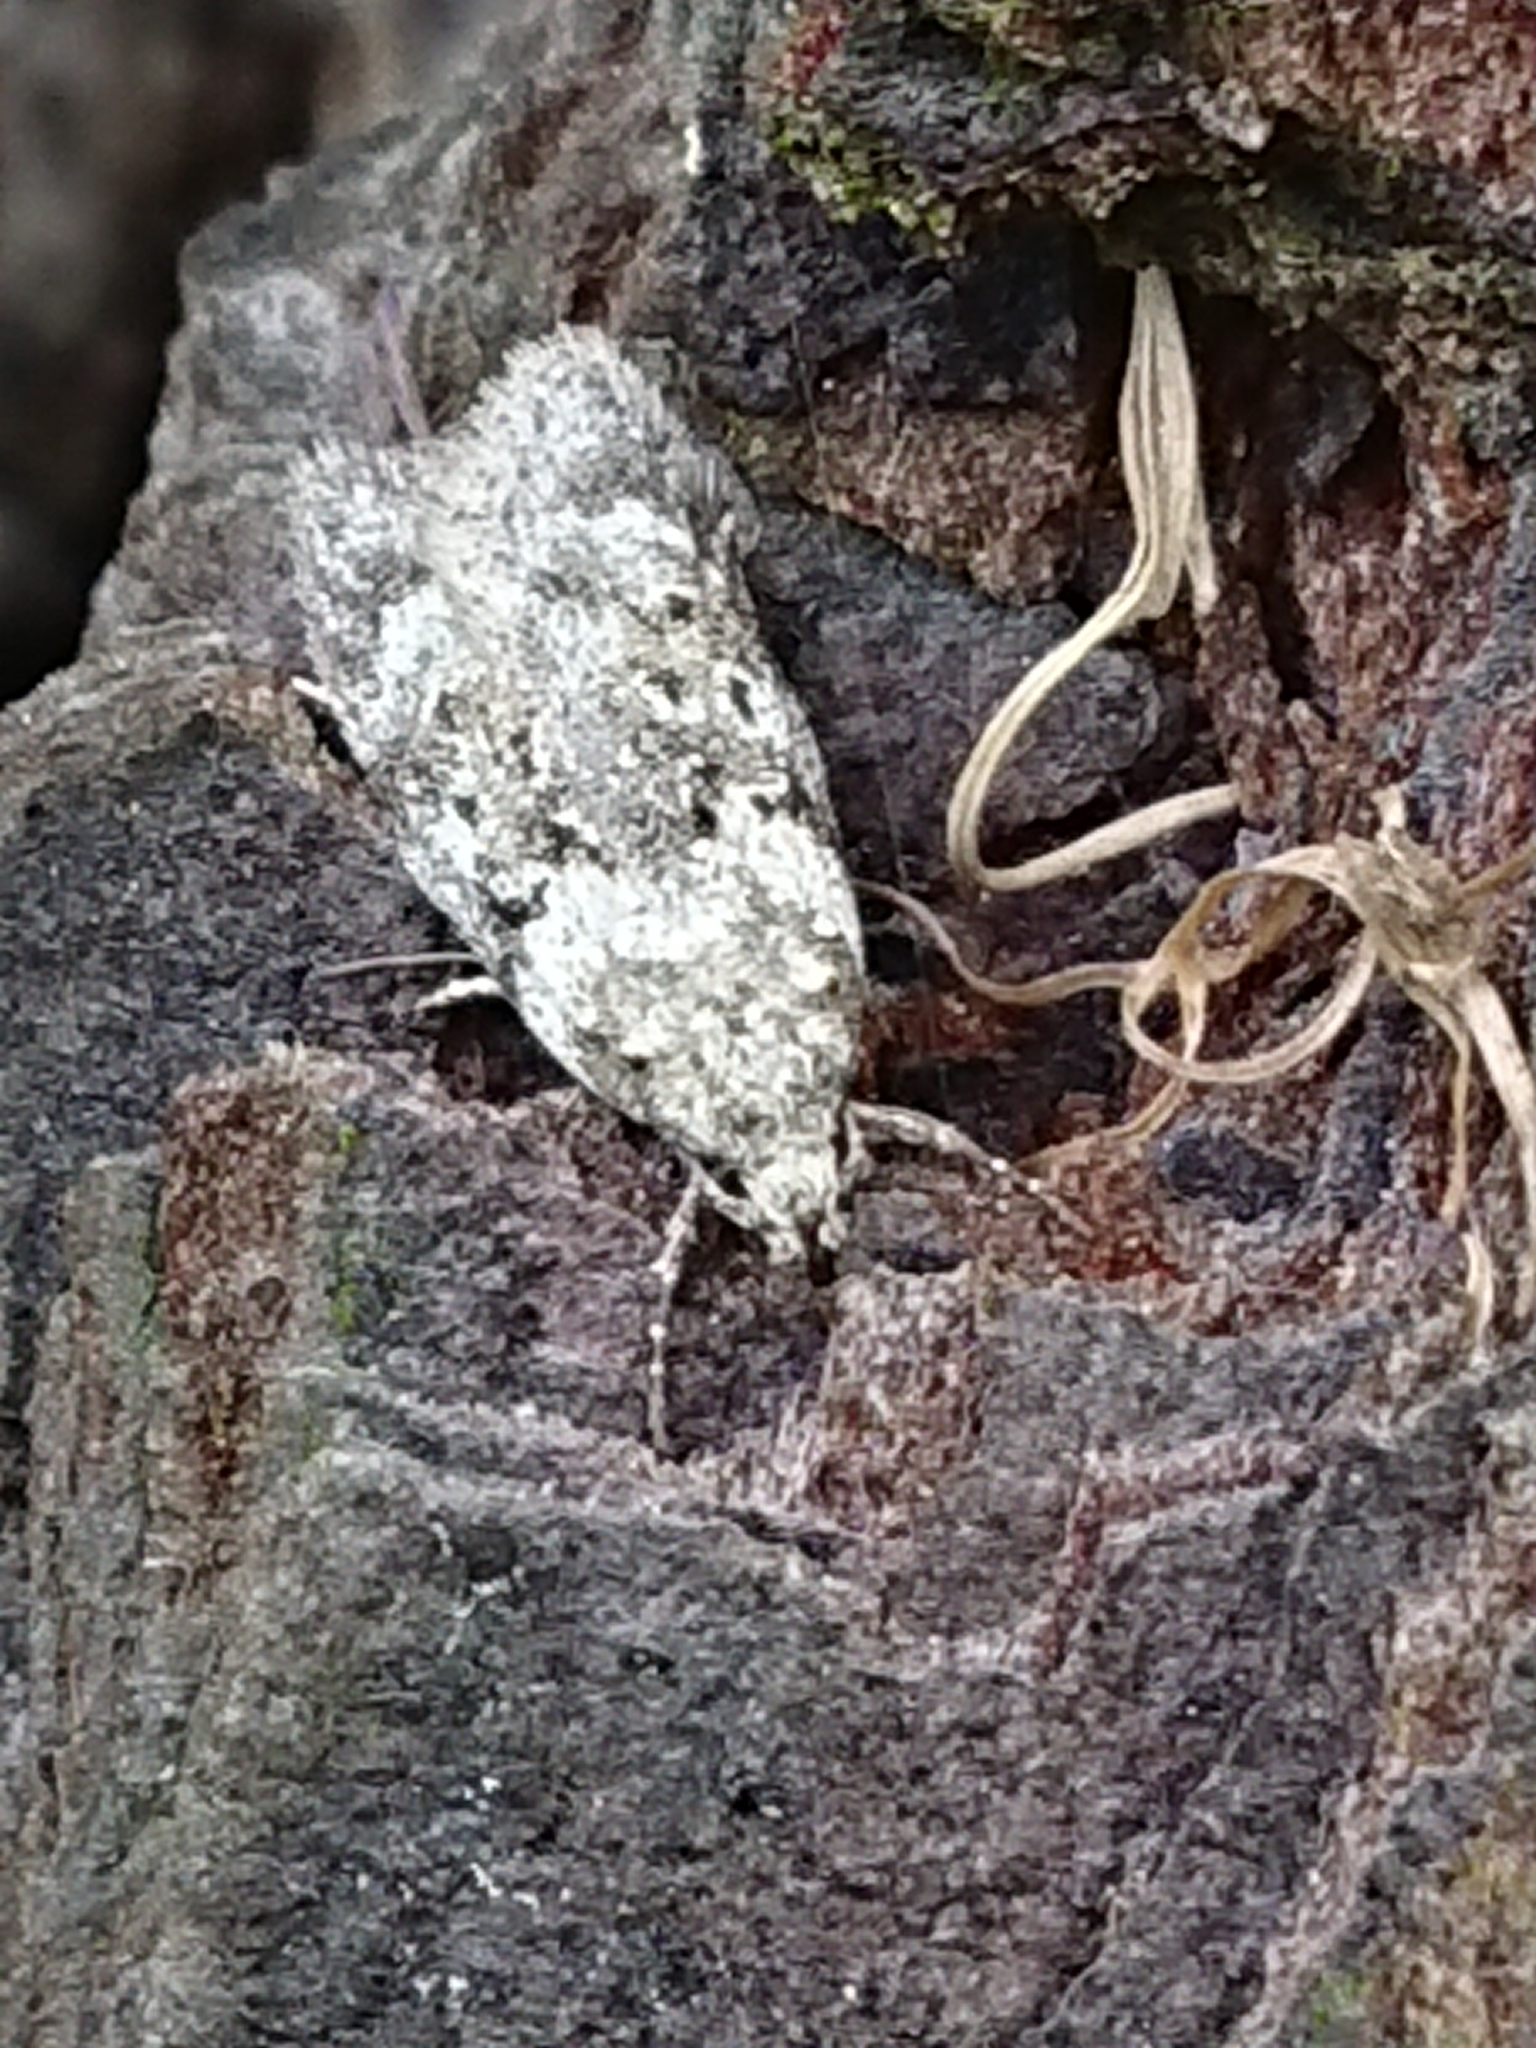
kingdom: Animalia
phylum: Arthropoda
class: Insecta
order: Lepidoptera
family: Oecophoridae
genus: Izatha
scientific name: Izatha convulsella
